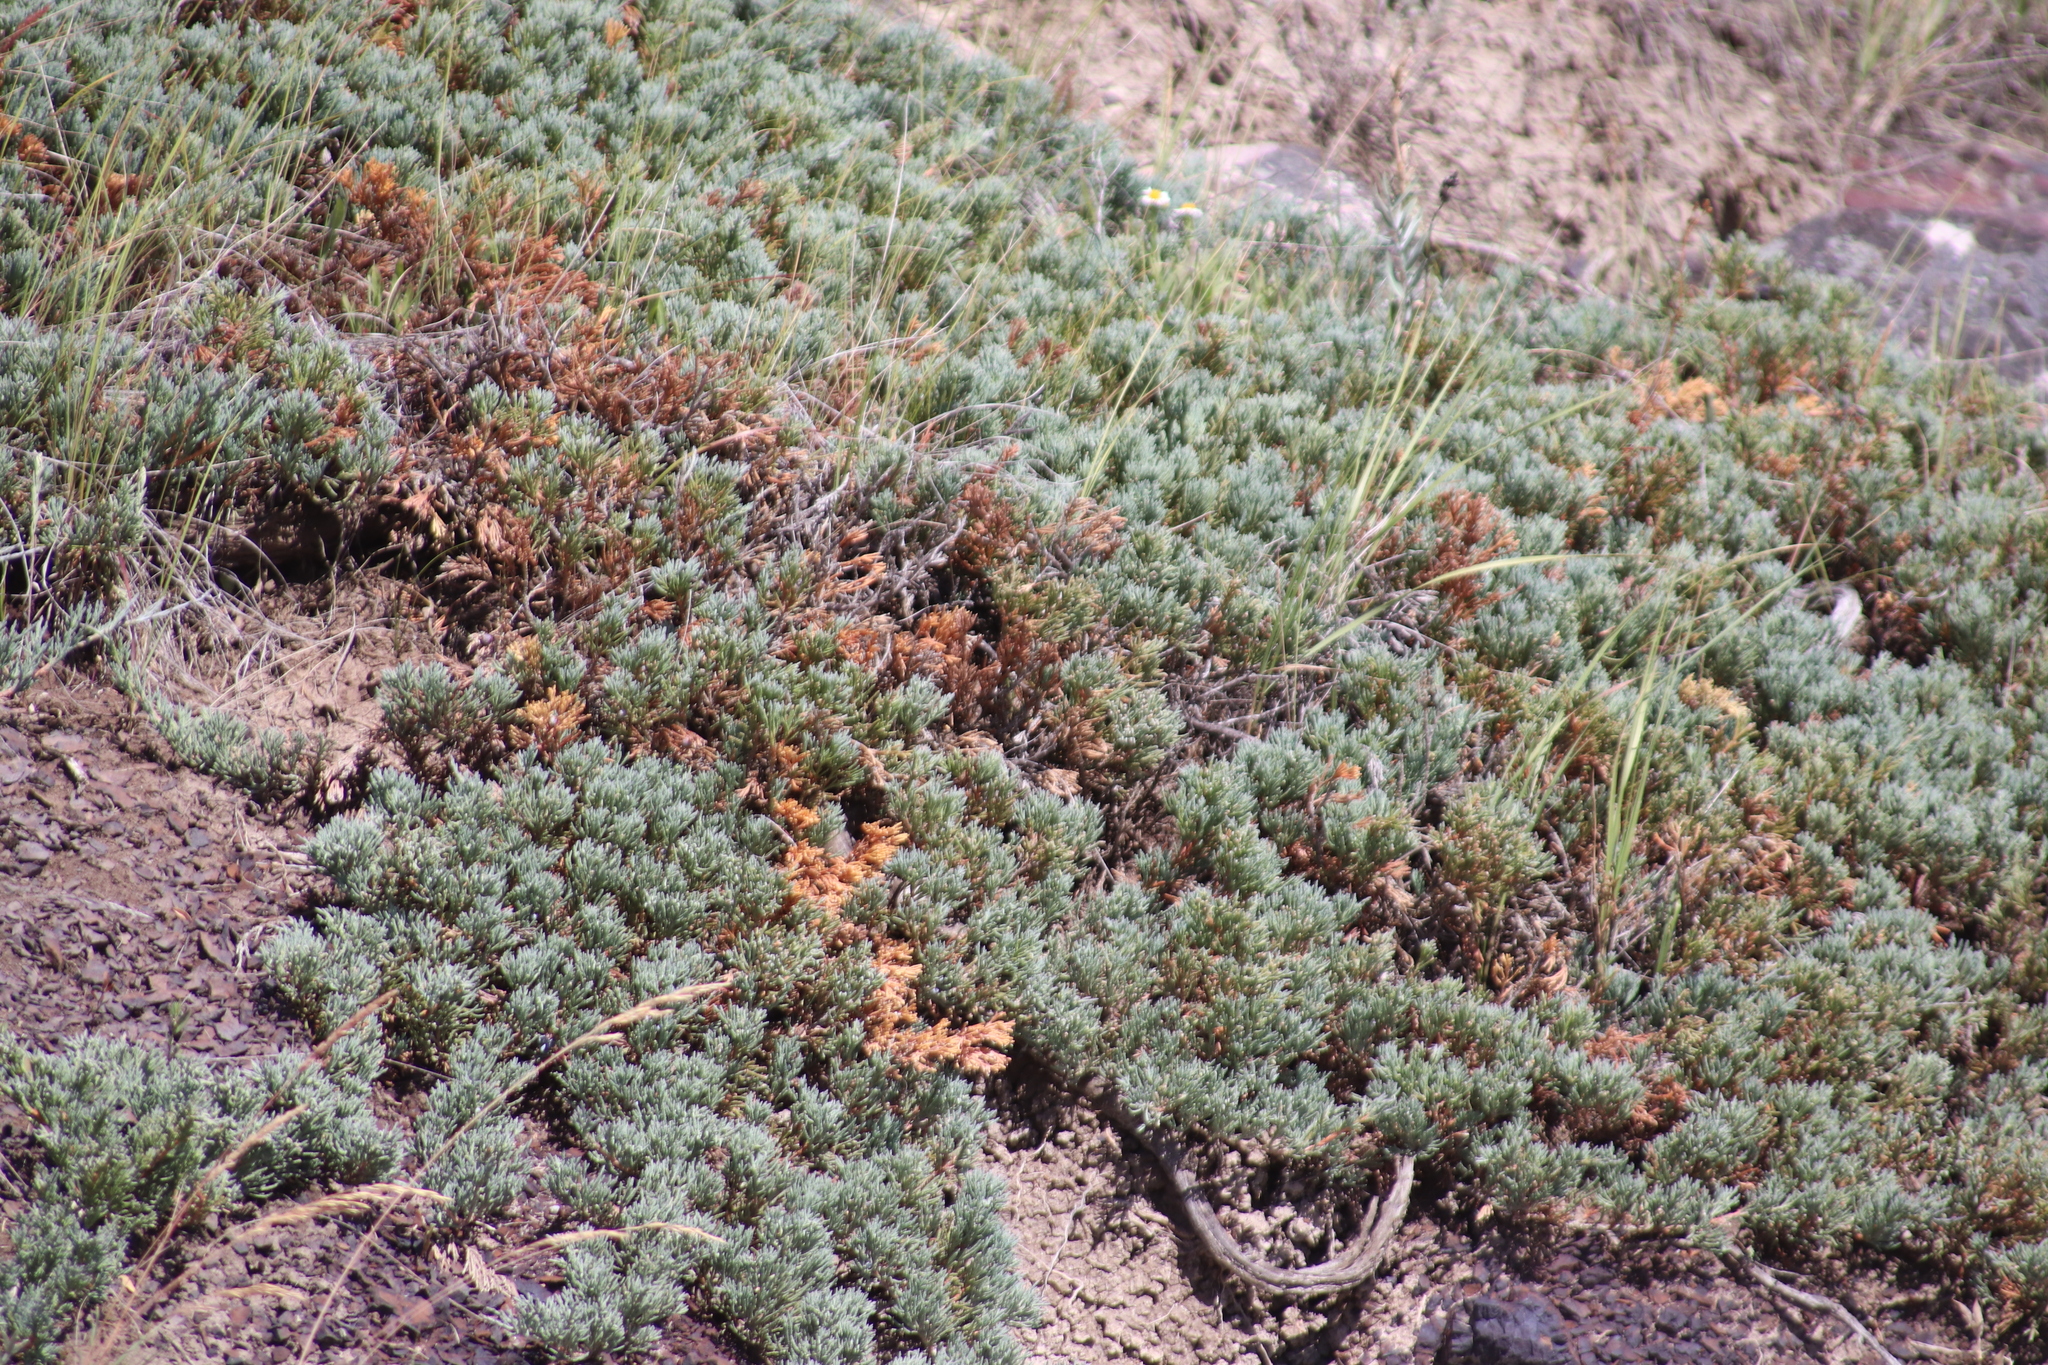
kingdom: Plantae
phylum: Tracheophyta
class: Pinopsida
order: Pinales
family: Cupressaceae
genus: Juniperus
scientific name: Juniperus horizontalis
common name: Creeping juniper
